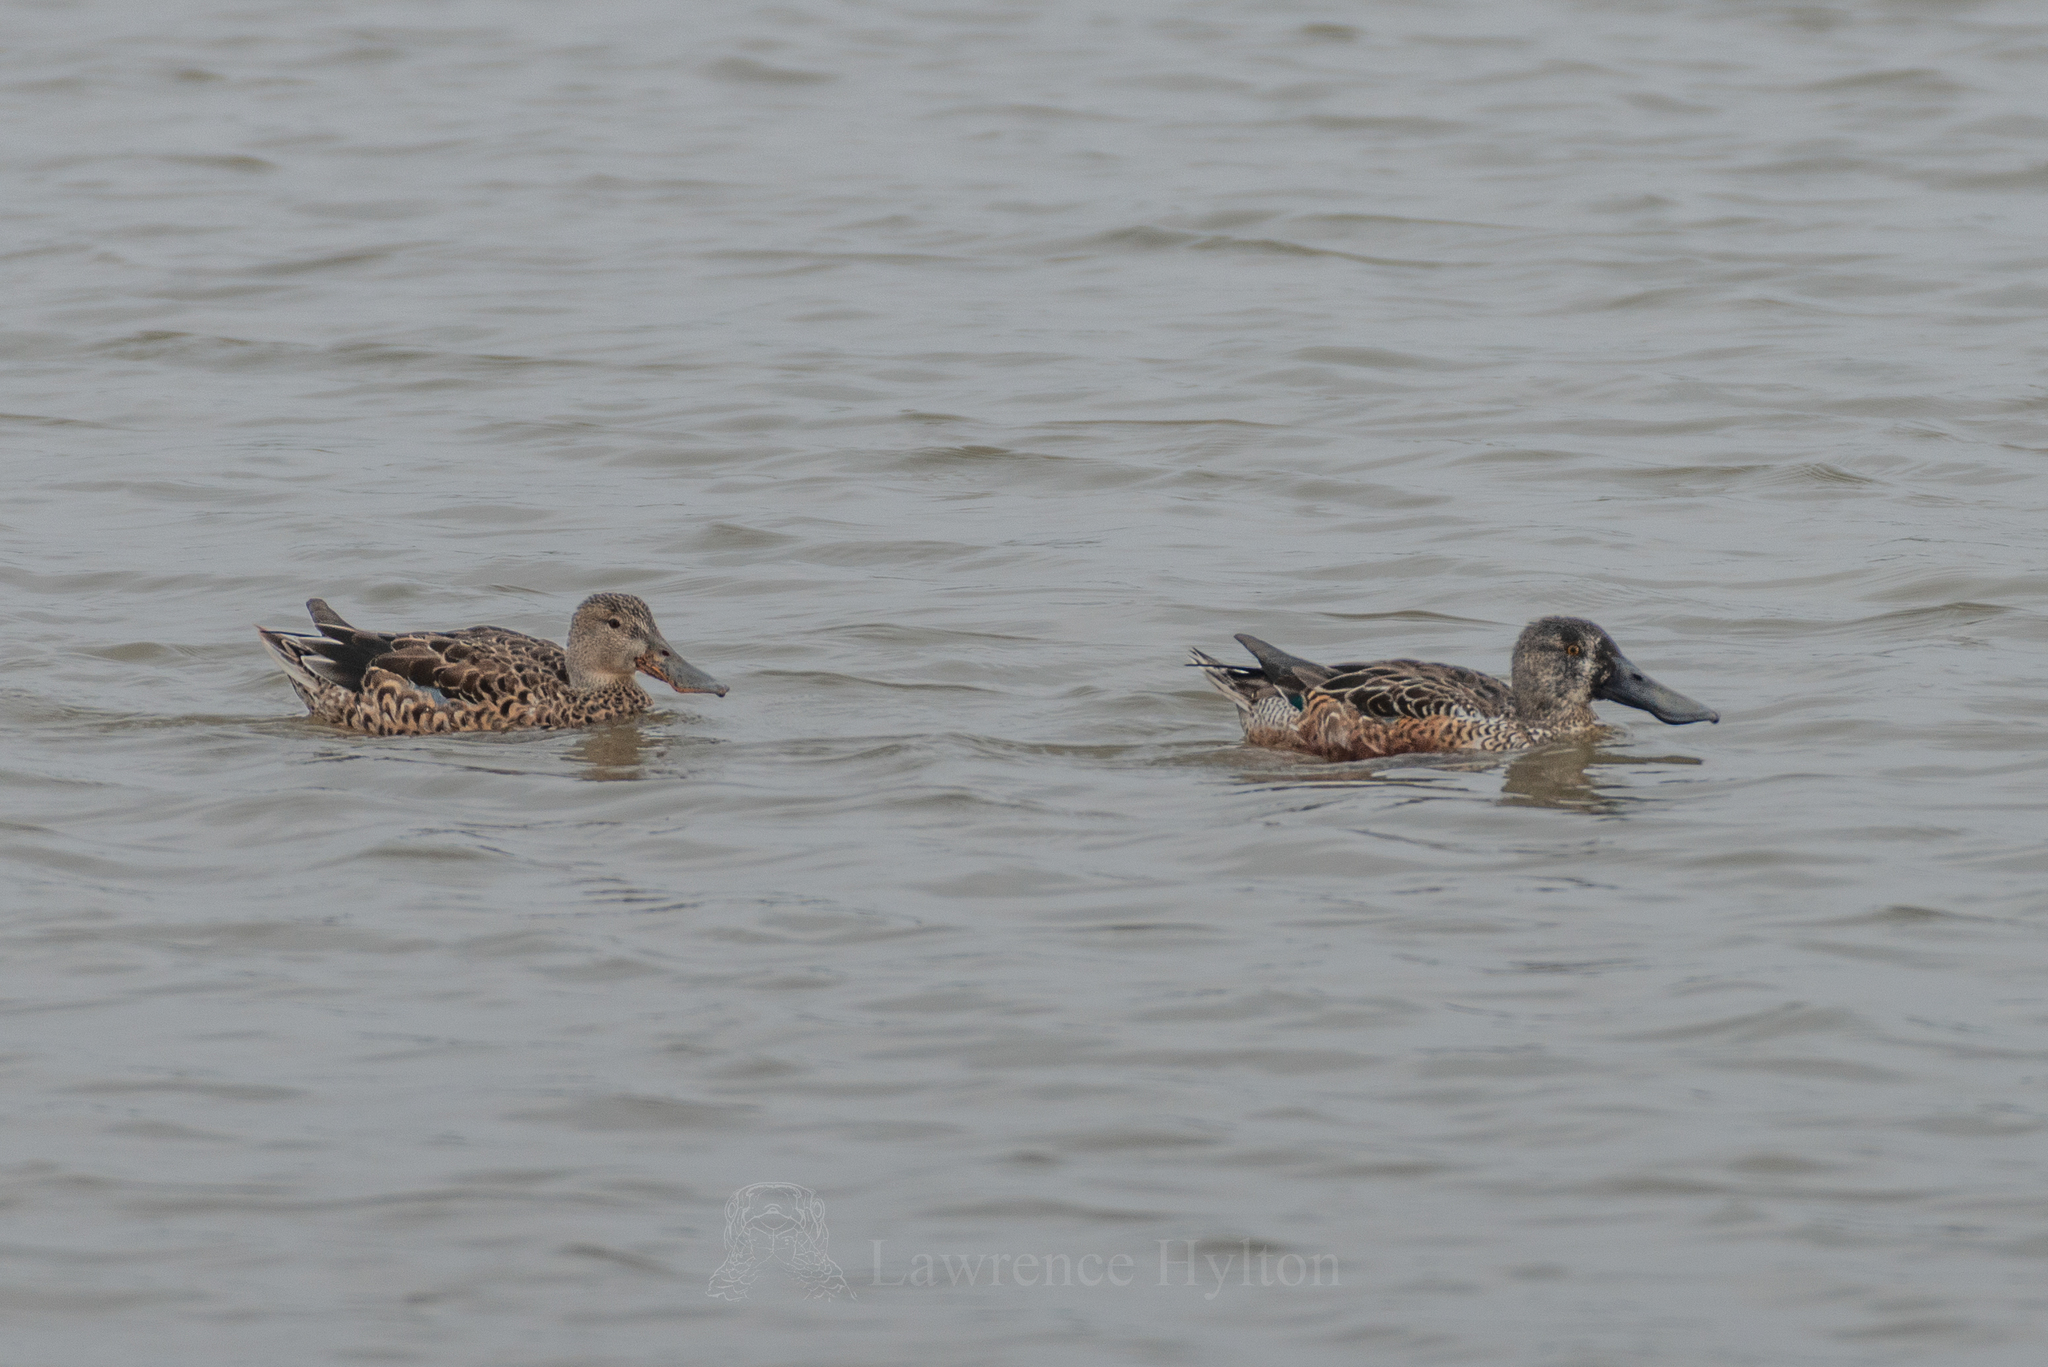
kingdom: Animalia
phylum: Chordata
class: Aves
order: Anseriformes
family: Anatidae
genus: Spatula
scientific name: Spatula clypeata
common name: Northern shoveler
